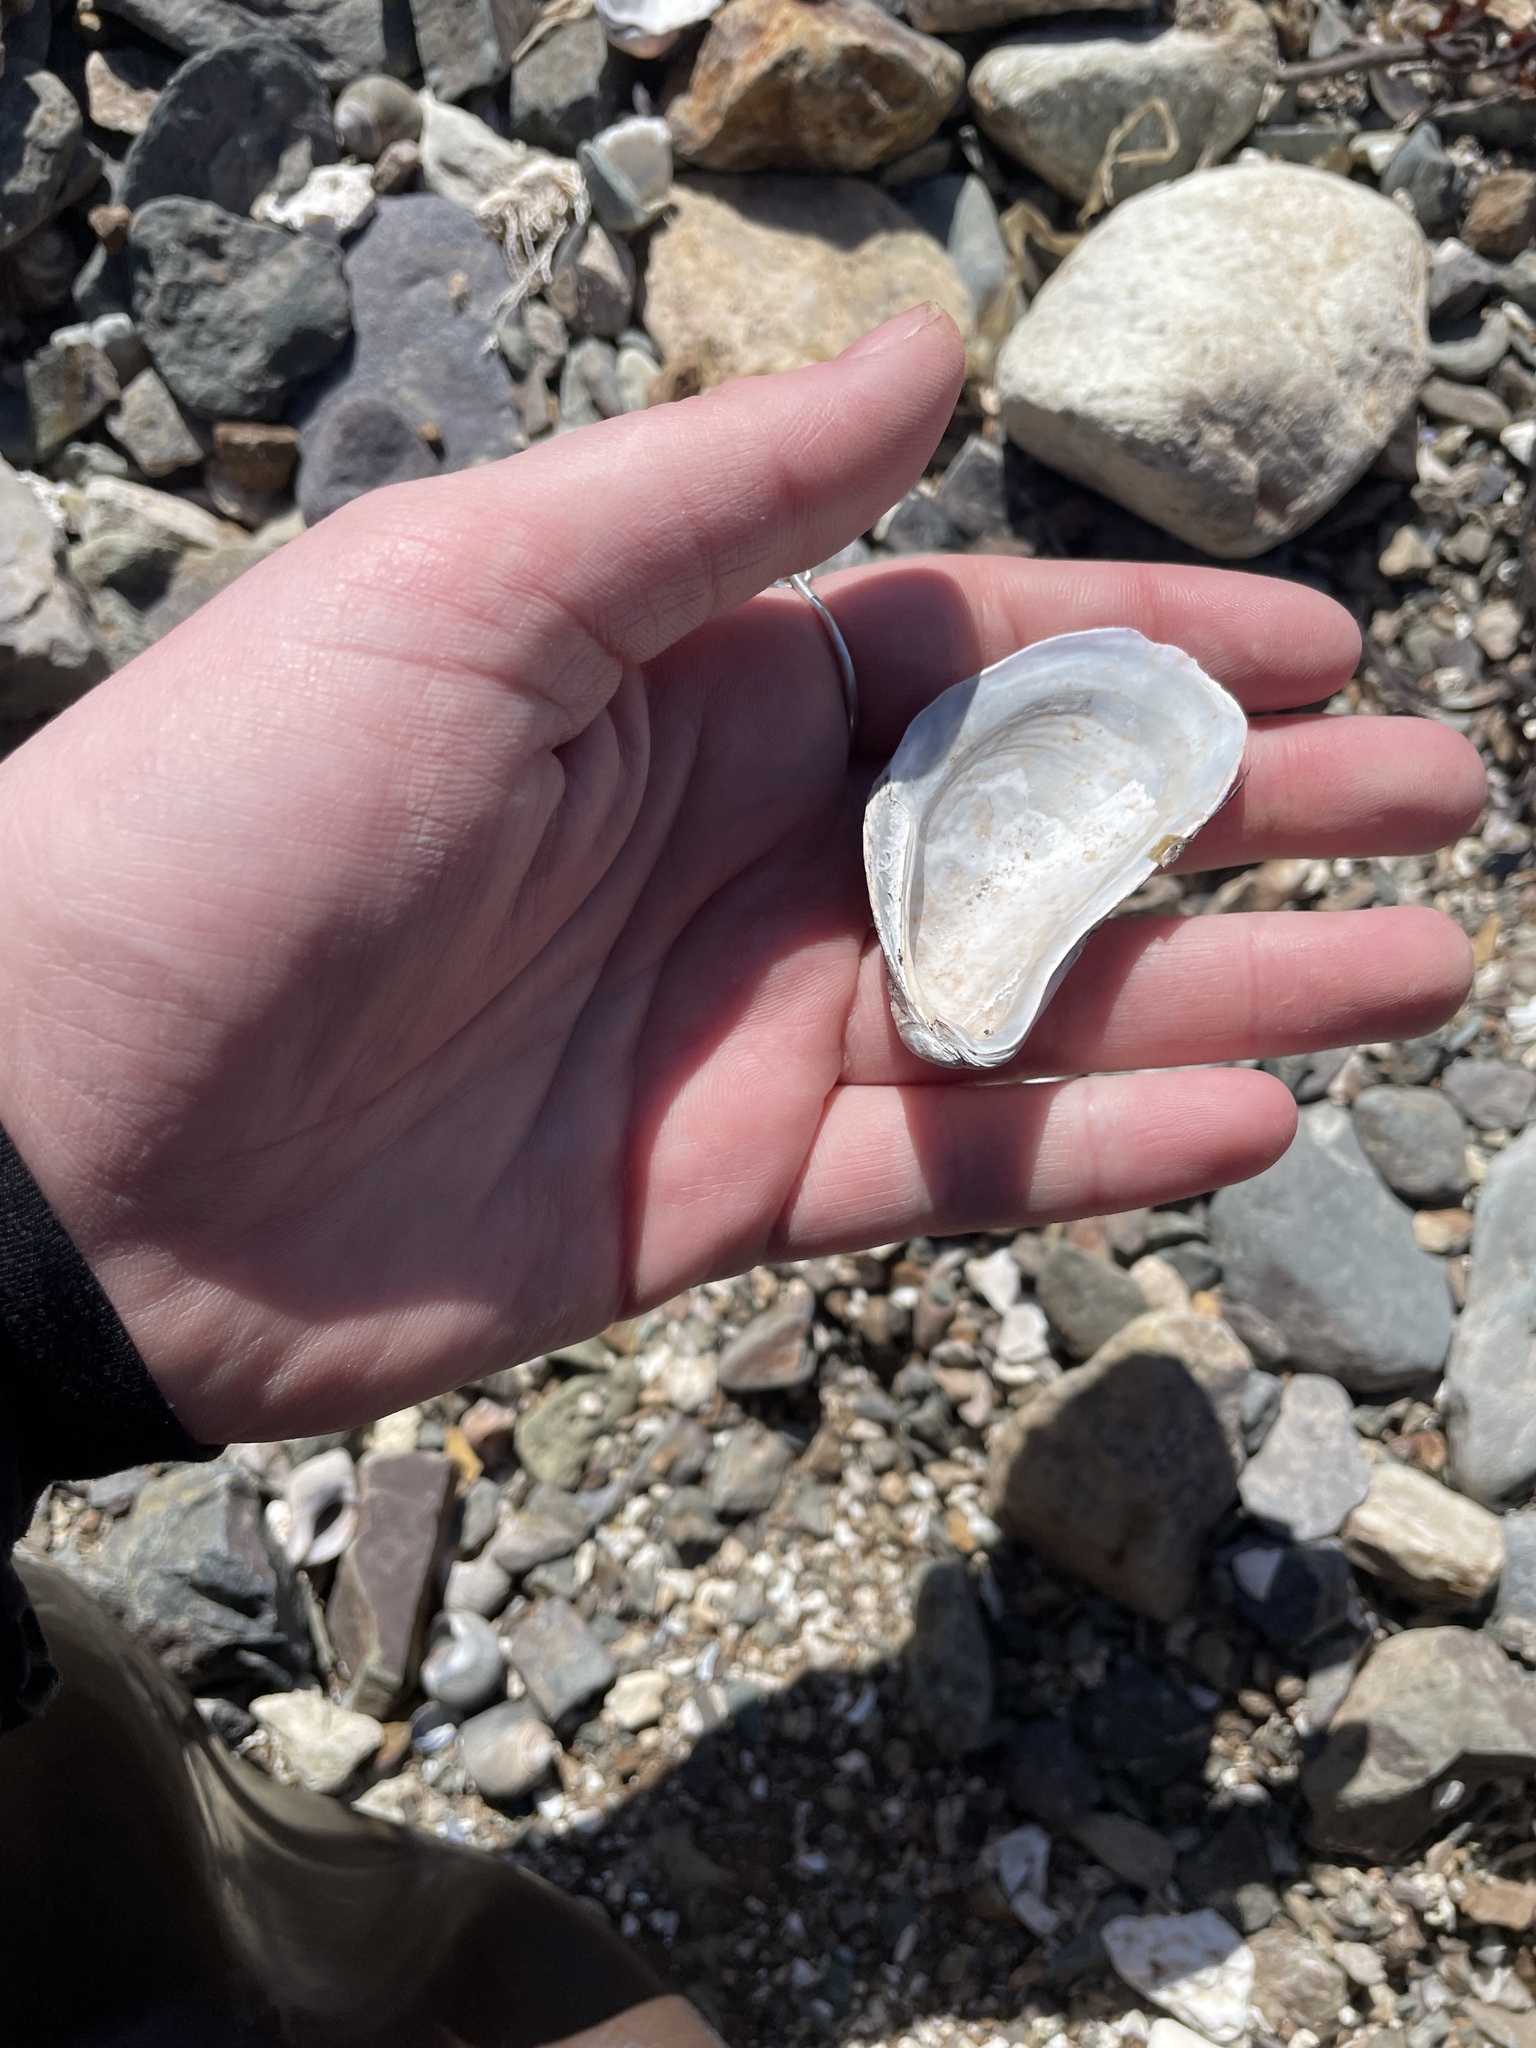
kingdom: Animalia
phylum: Mollusca
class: Bivalvia
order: Mytilida
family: Mytilidae
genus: Modiolus
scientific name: Modiolus modiolus
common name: Horse-mussel
